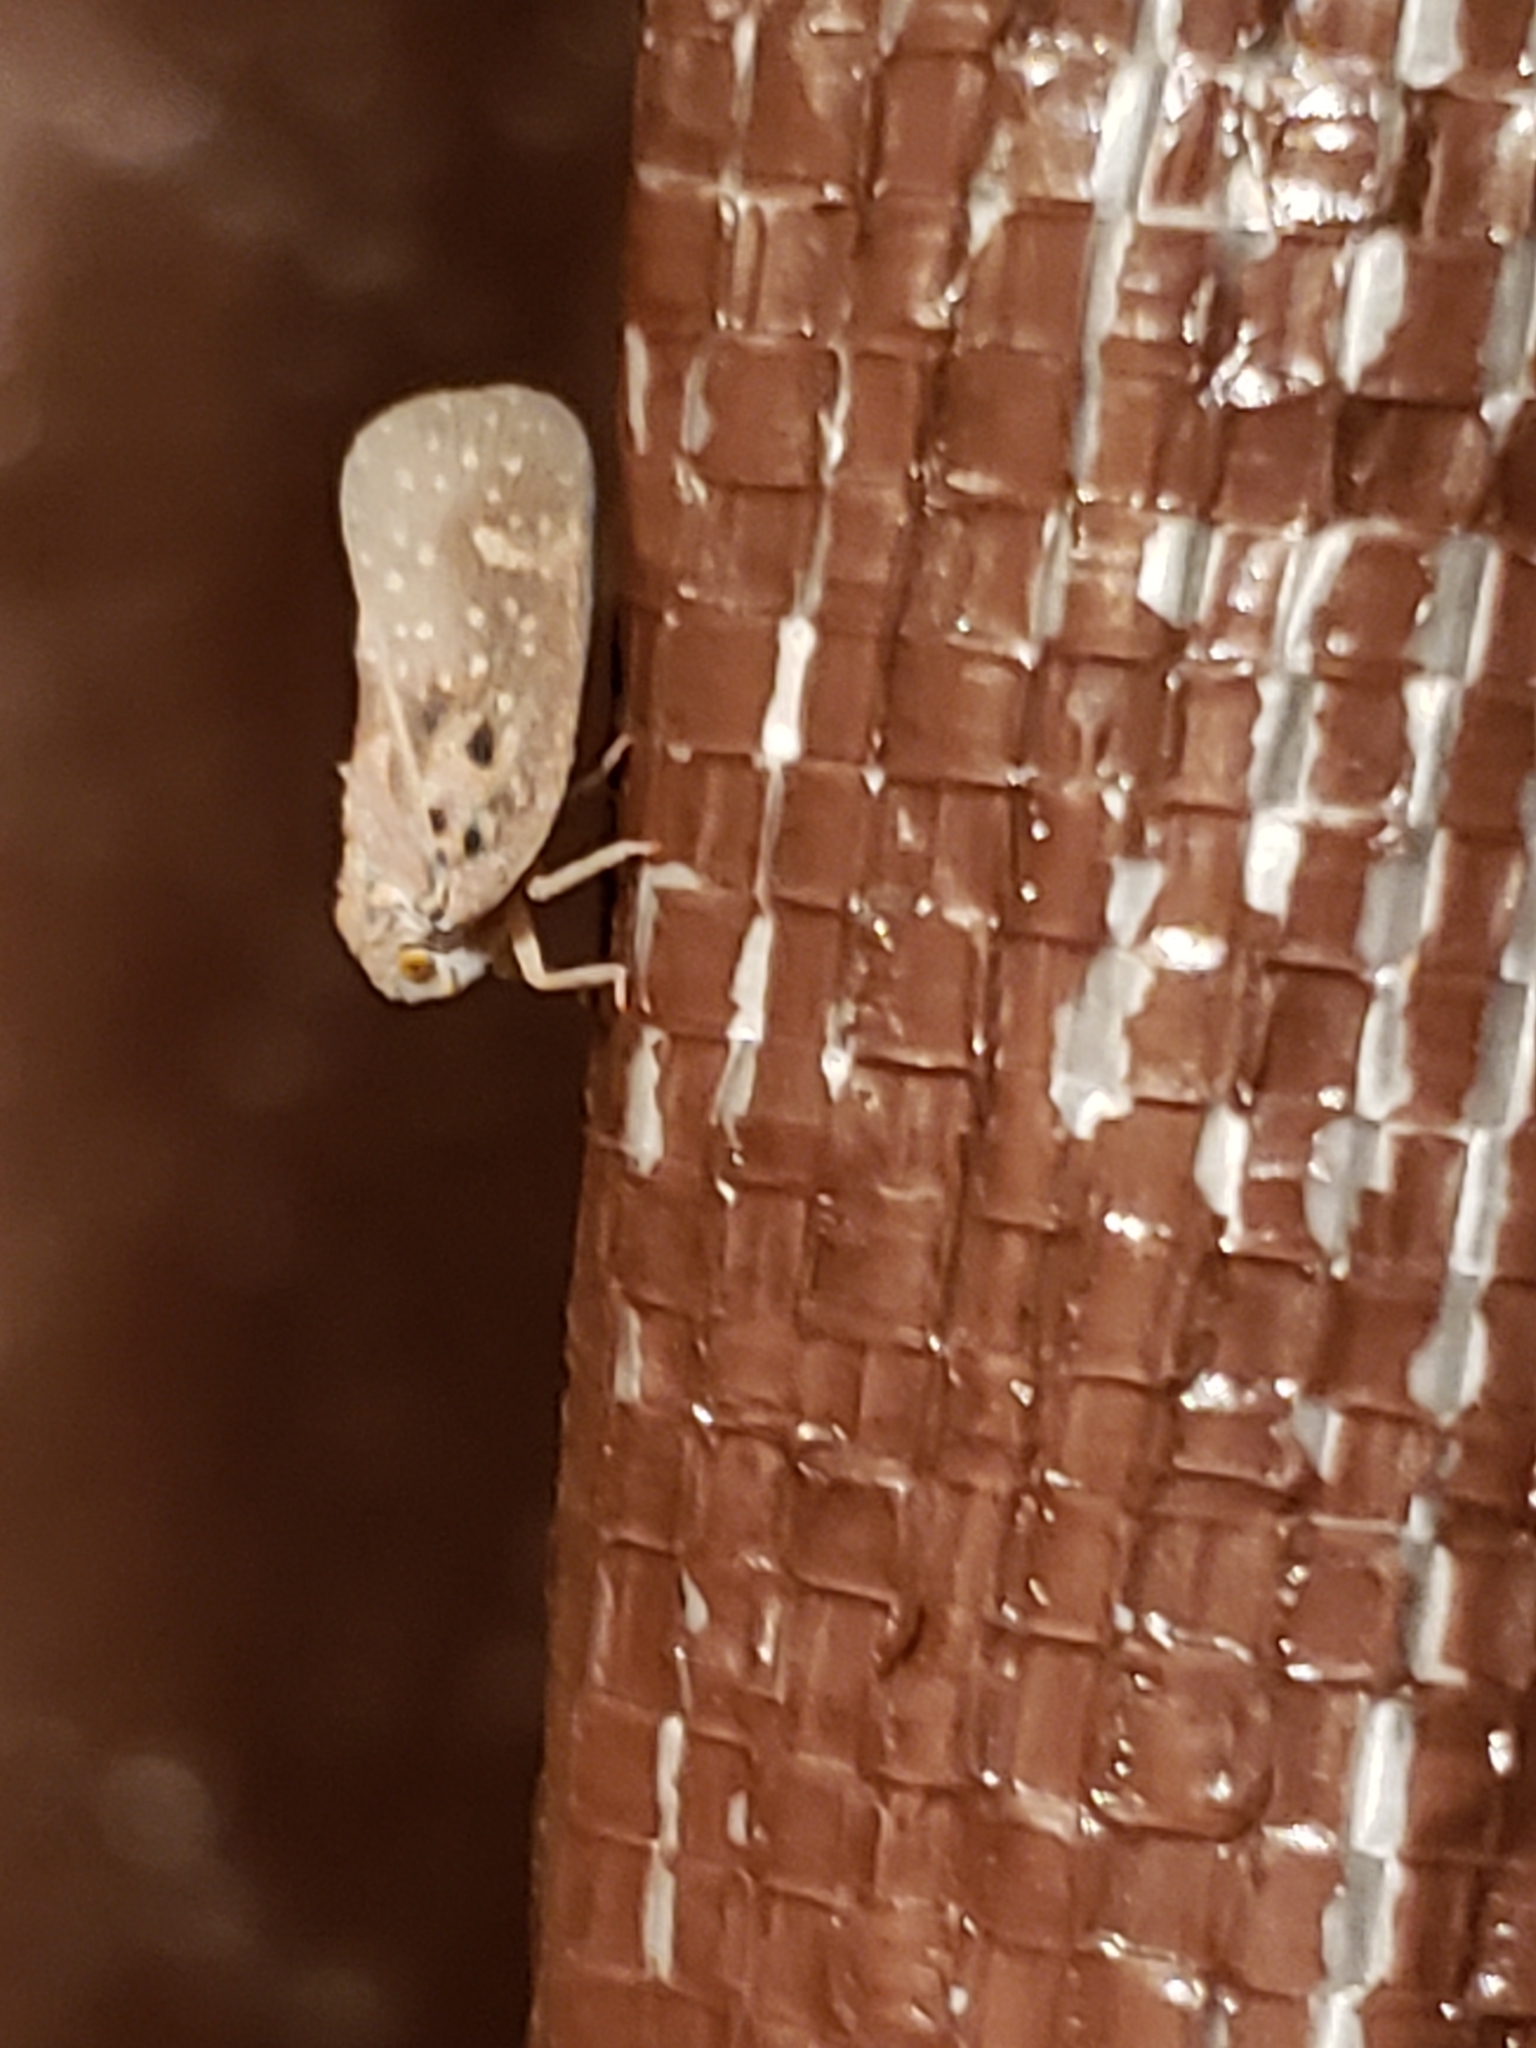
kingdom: Animalia
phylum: Arthropoda
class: Insecta
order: Hemiptera
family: Flatidae
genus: Metcalfa
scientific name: Metcalfa pruinosa
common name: Citrus flatid planthopper
